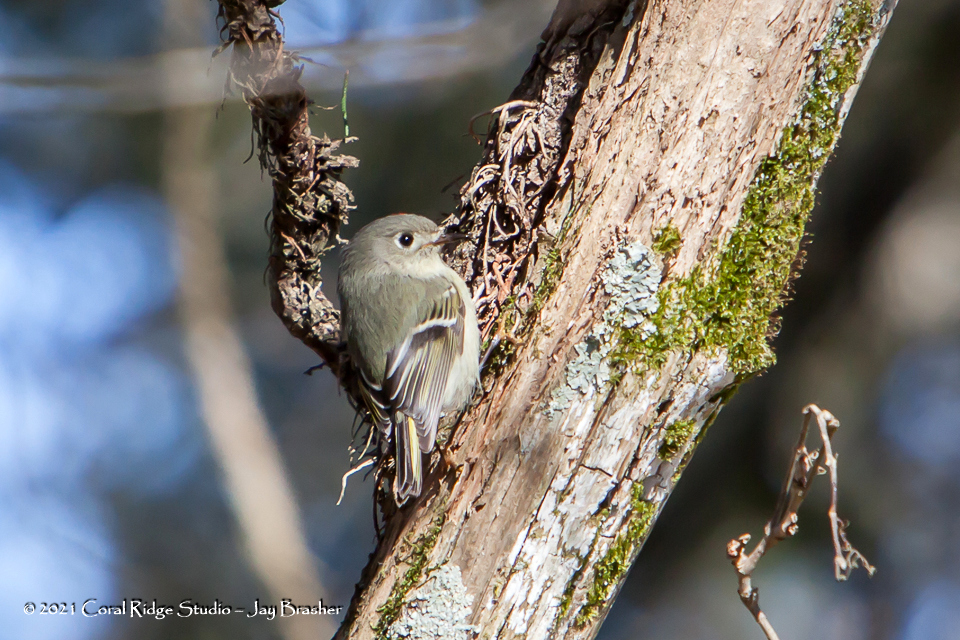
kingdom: Animalia
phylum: Chordata
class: Aves
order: Passeriformes
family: Regulidae
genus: Regulus
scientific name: Regulus calendula
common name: Ruby-crowned kinglet
